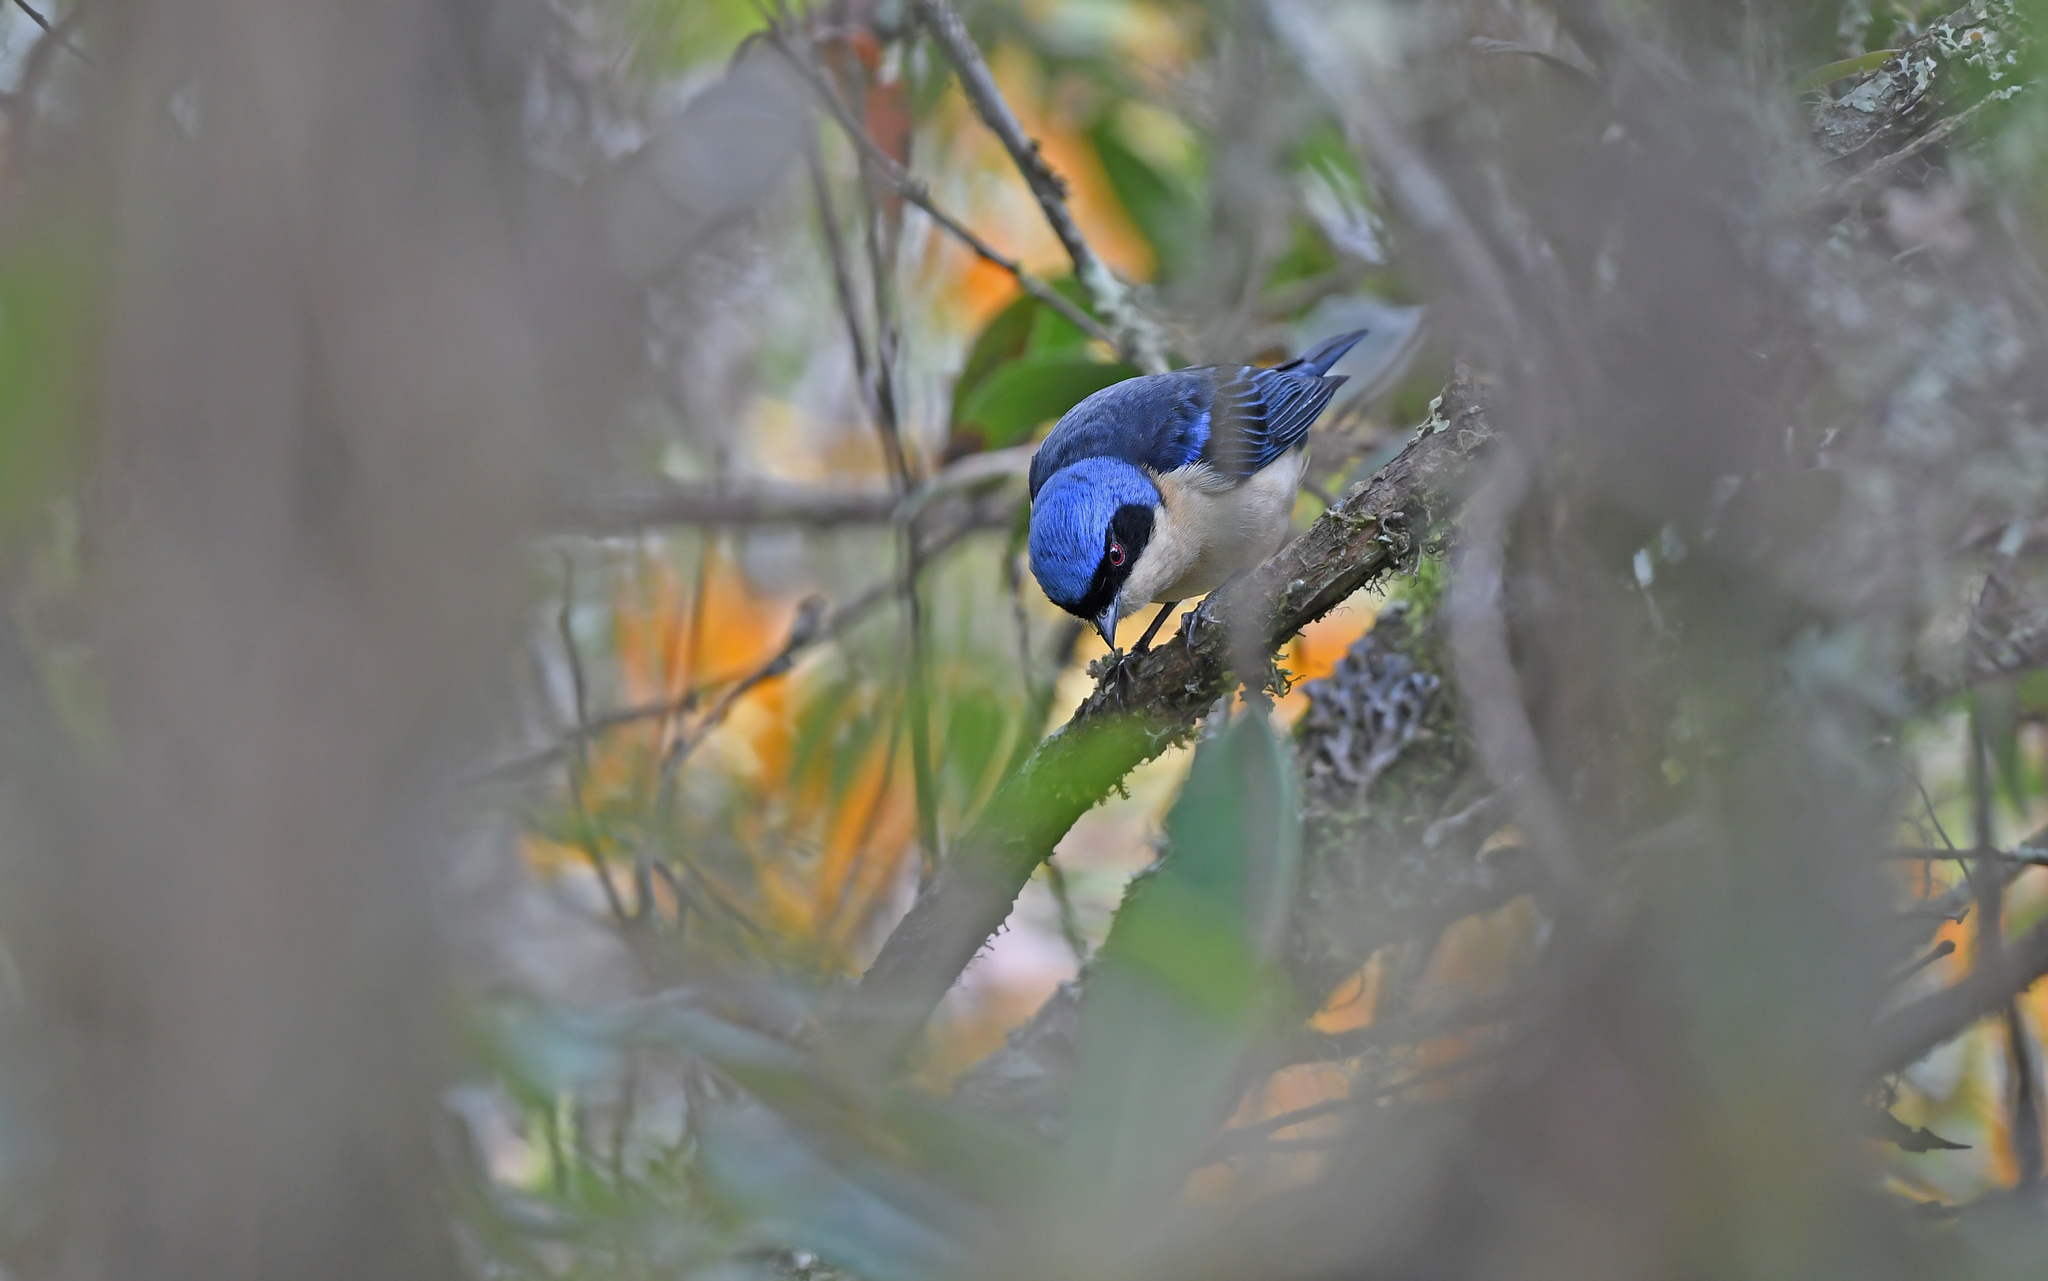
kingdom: Animalia
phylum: Chordata
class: Aves
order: Passeriformes
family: Thraupidae
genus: Pipraeidea
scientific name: Pipraeidea melanonota
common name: Fawn-breasted tanager
